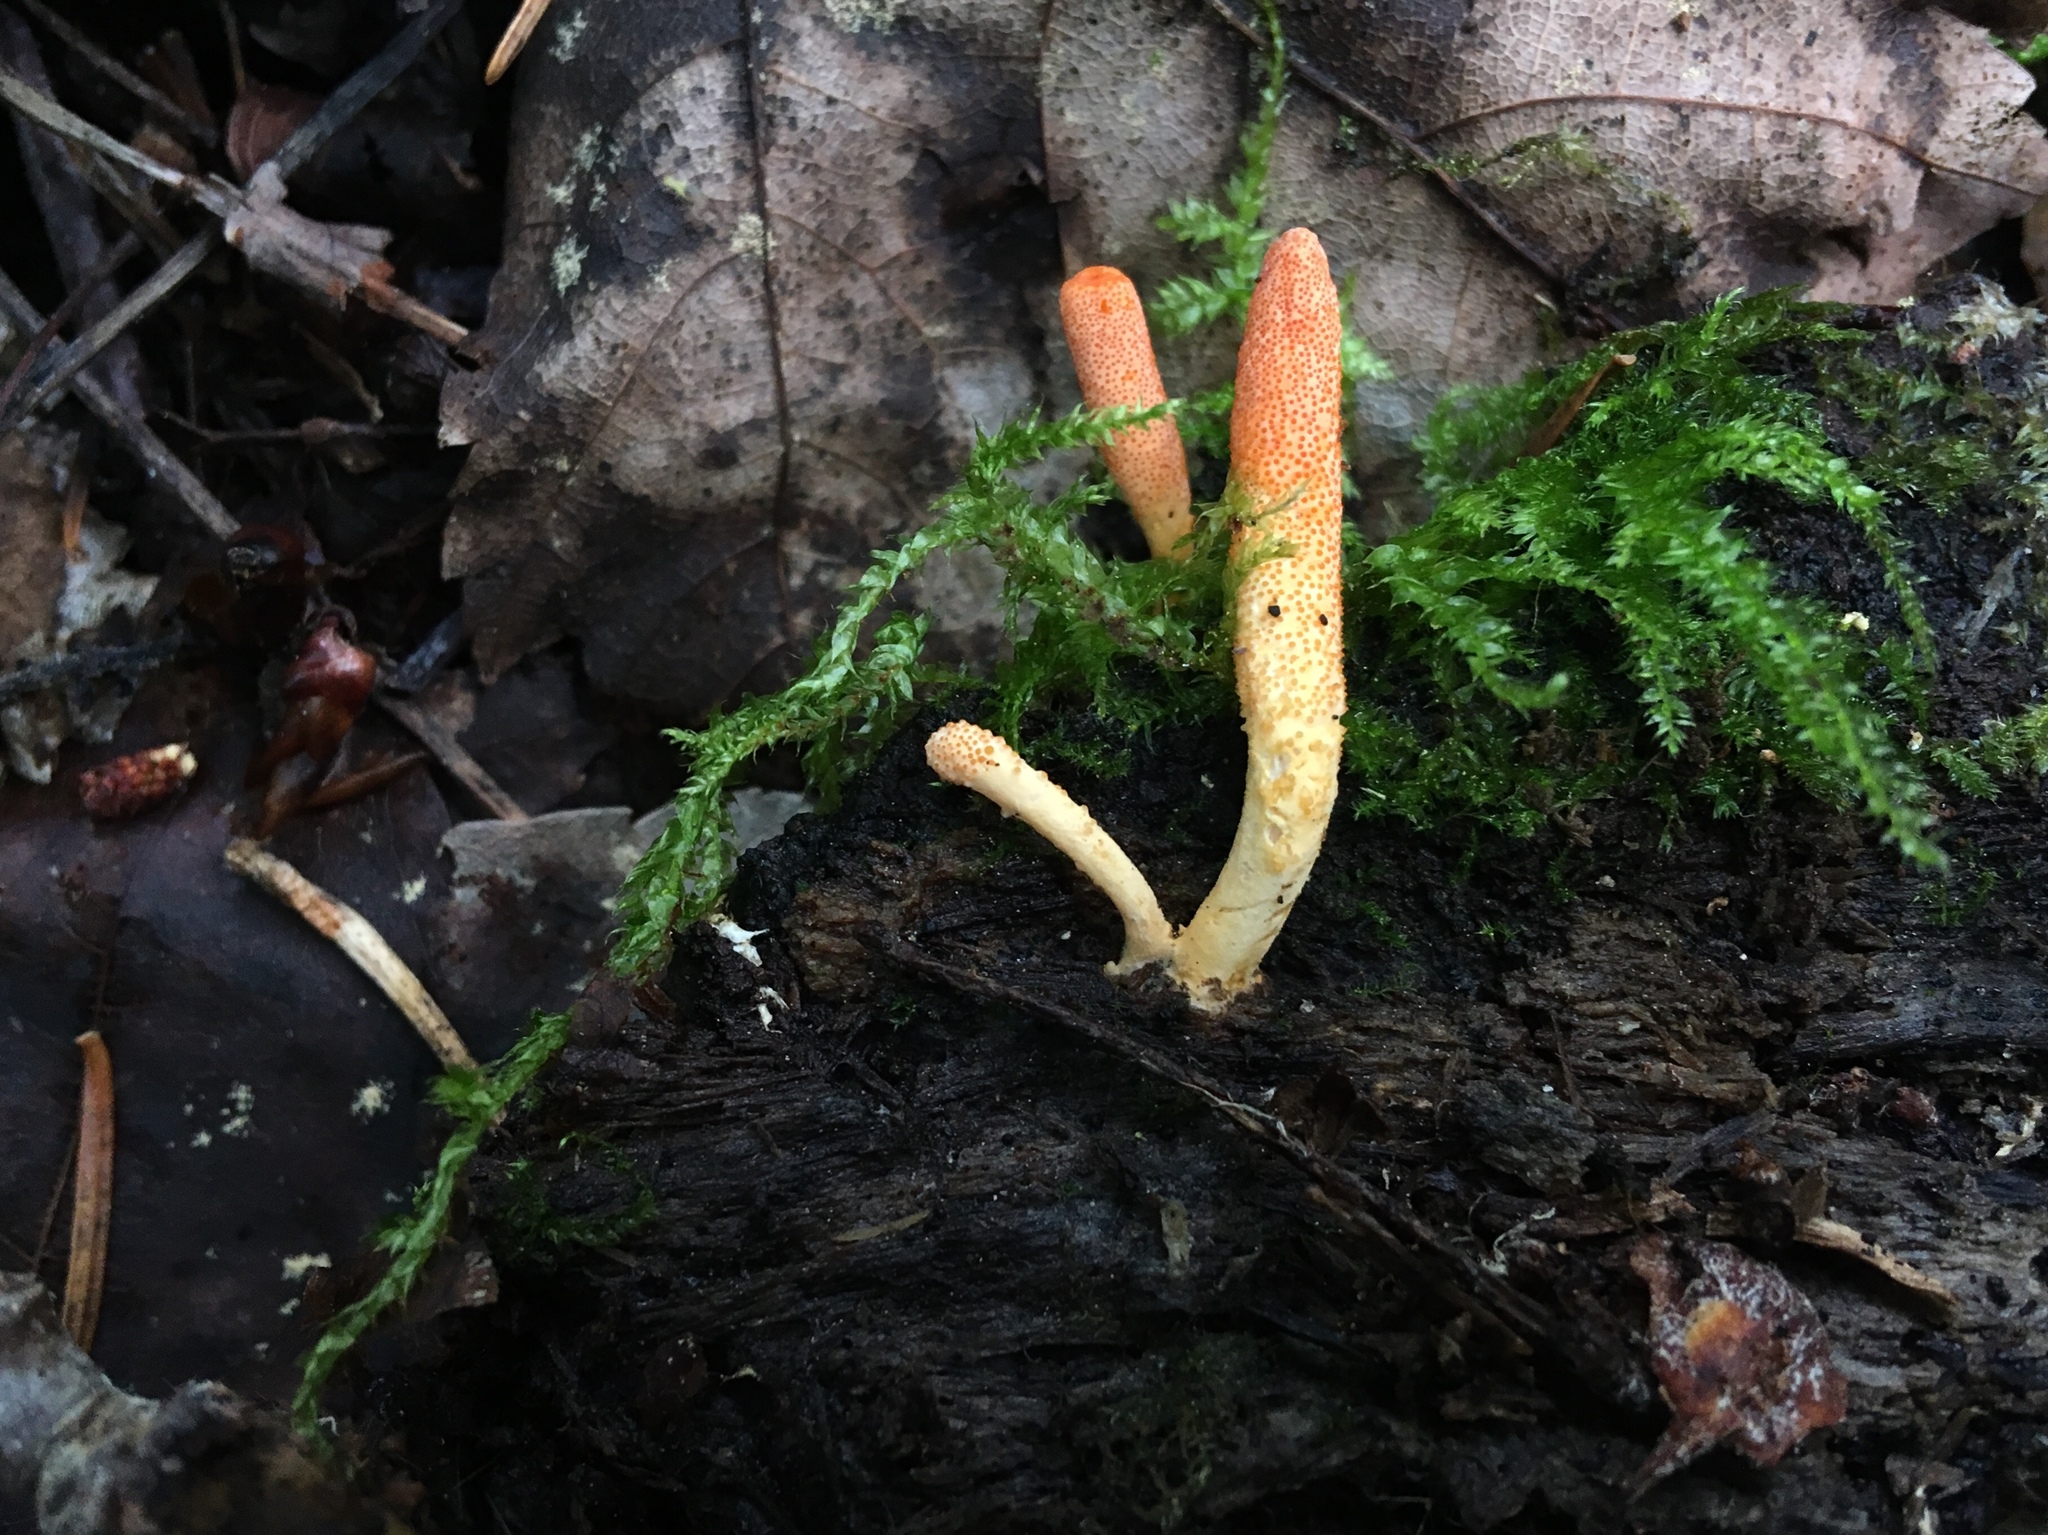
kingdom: Fungi
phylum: Ascomycota
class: Sordariomycetes
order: Hypocreales
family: Cordycipitaceae
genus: Cordyceps
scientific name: Cordyceps militaris
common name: Scarlet caterpillar fungus
